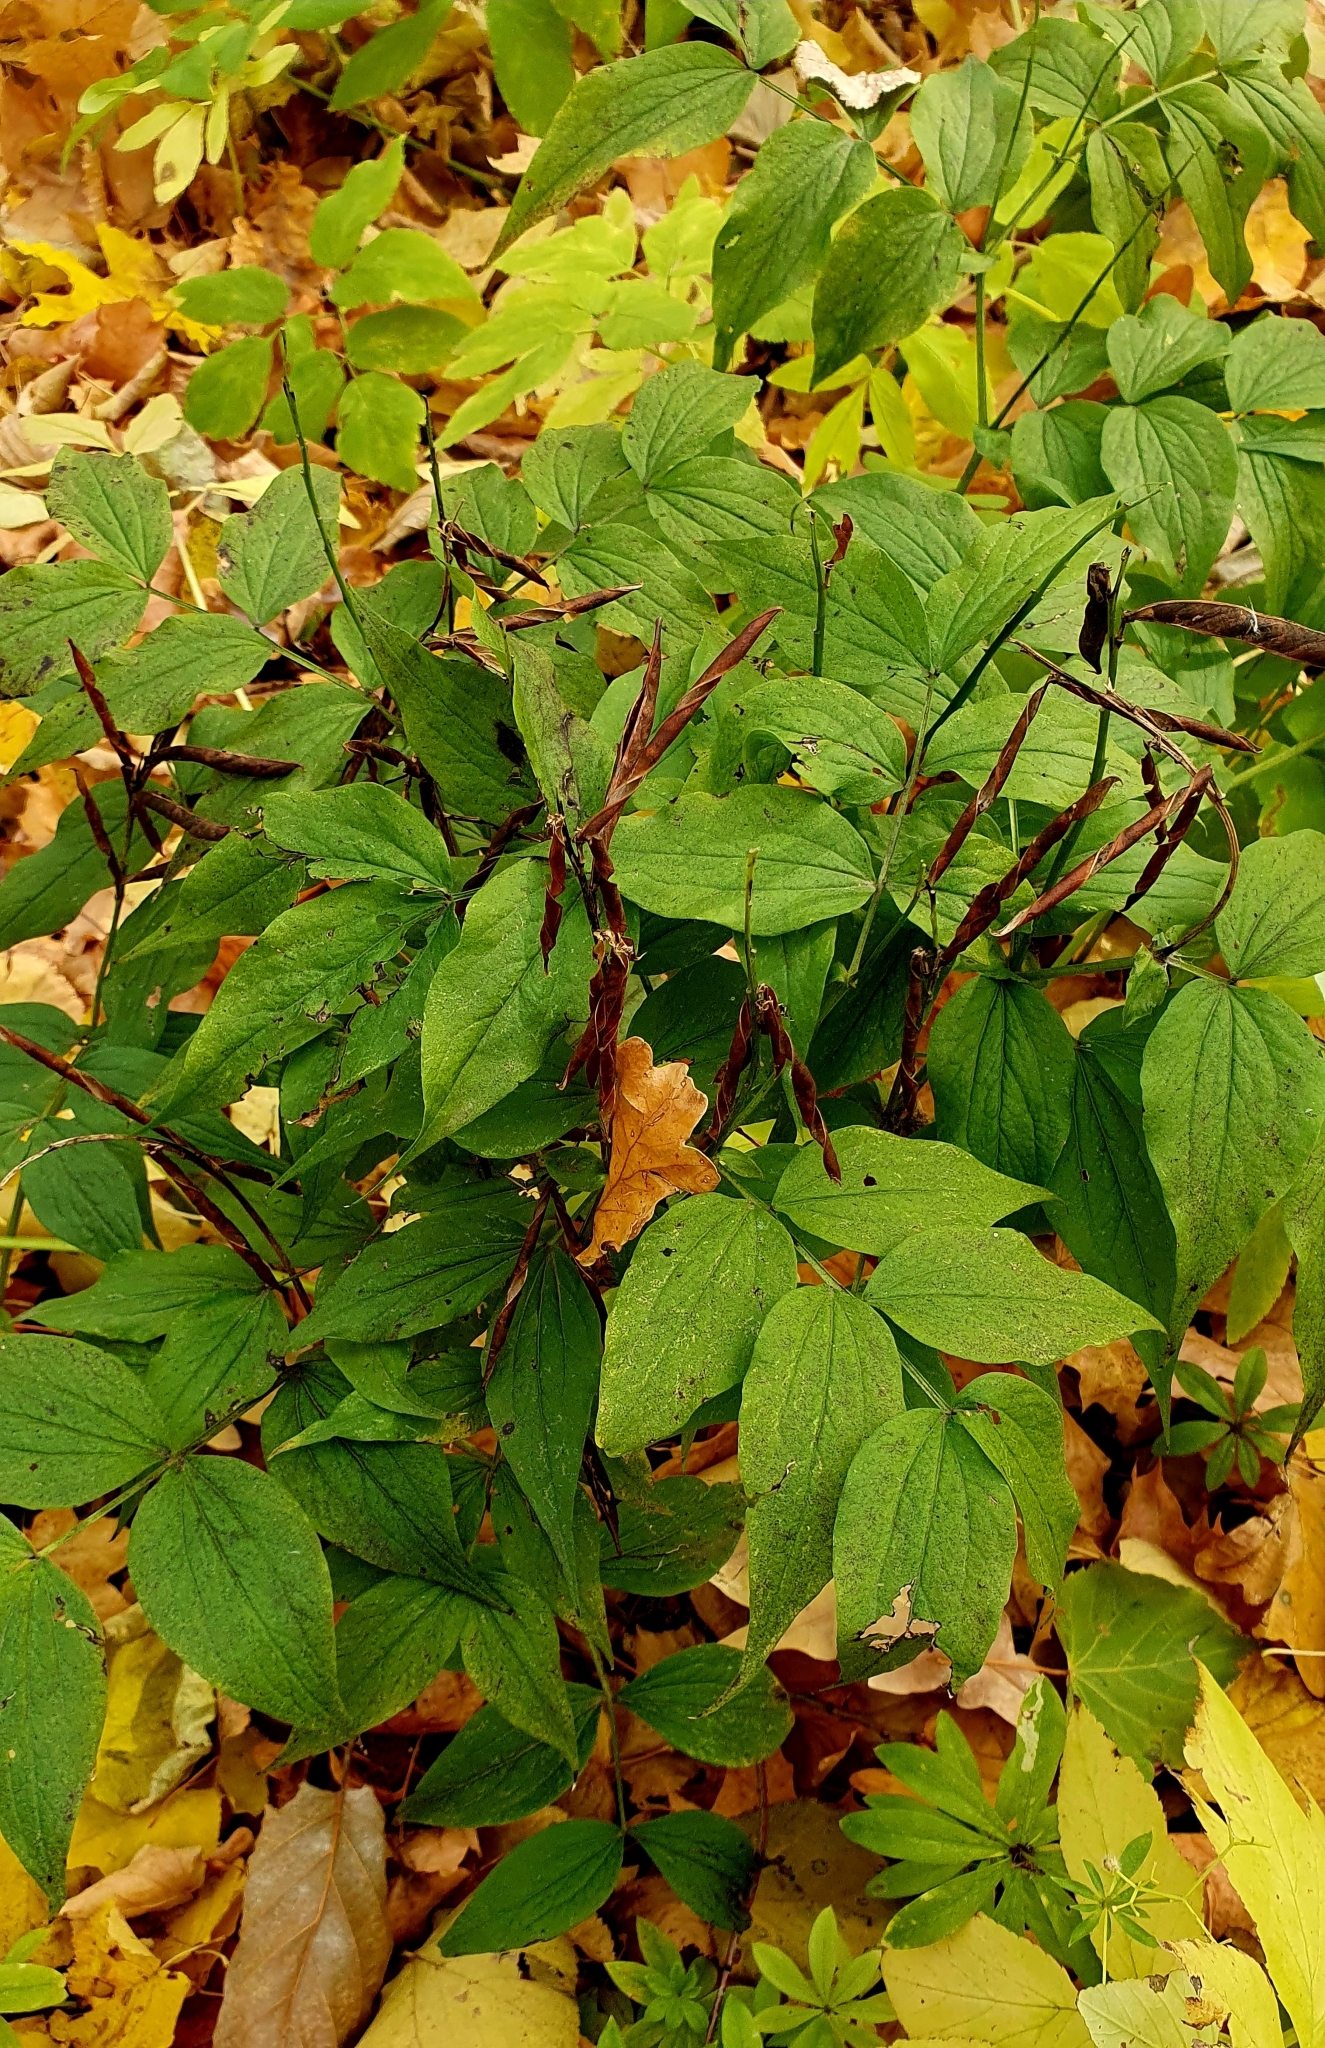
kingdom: Plantae
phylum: Tracheophyta
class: Magnoliopsida
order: Fabales
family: Fabaceae
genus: Lathyrus
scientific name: Lathyrus vernus
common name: Spring pea
